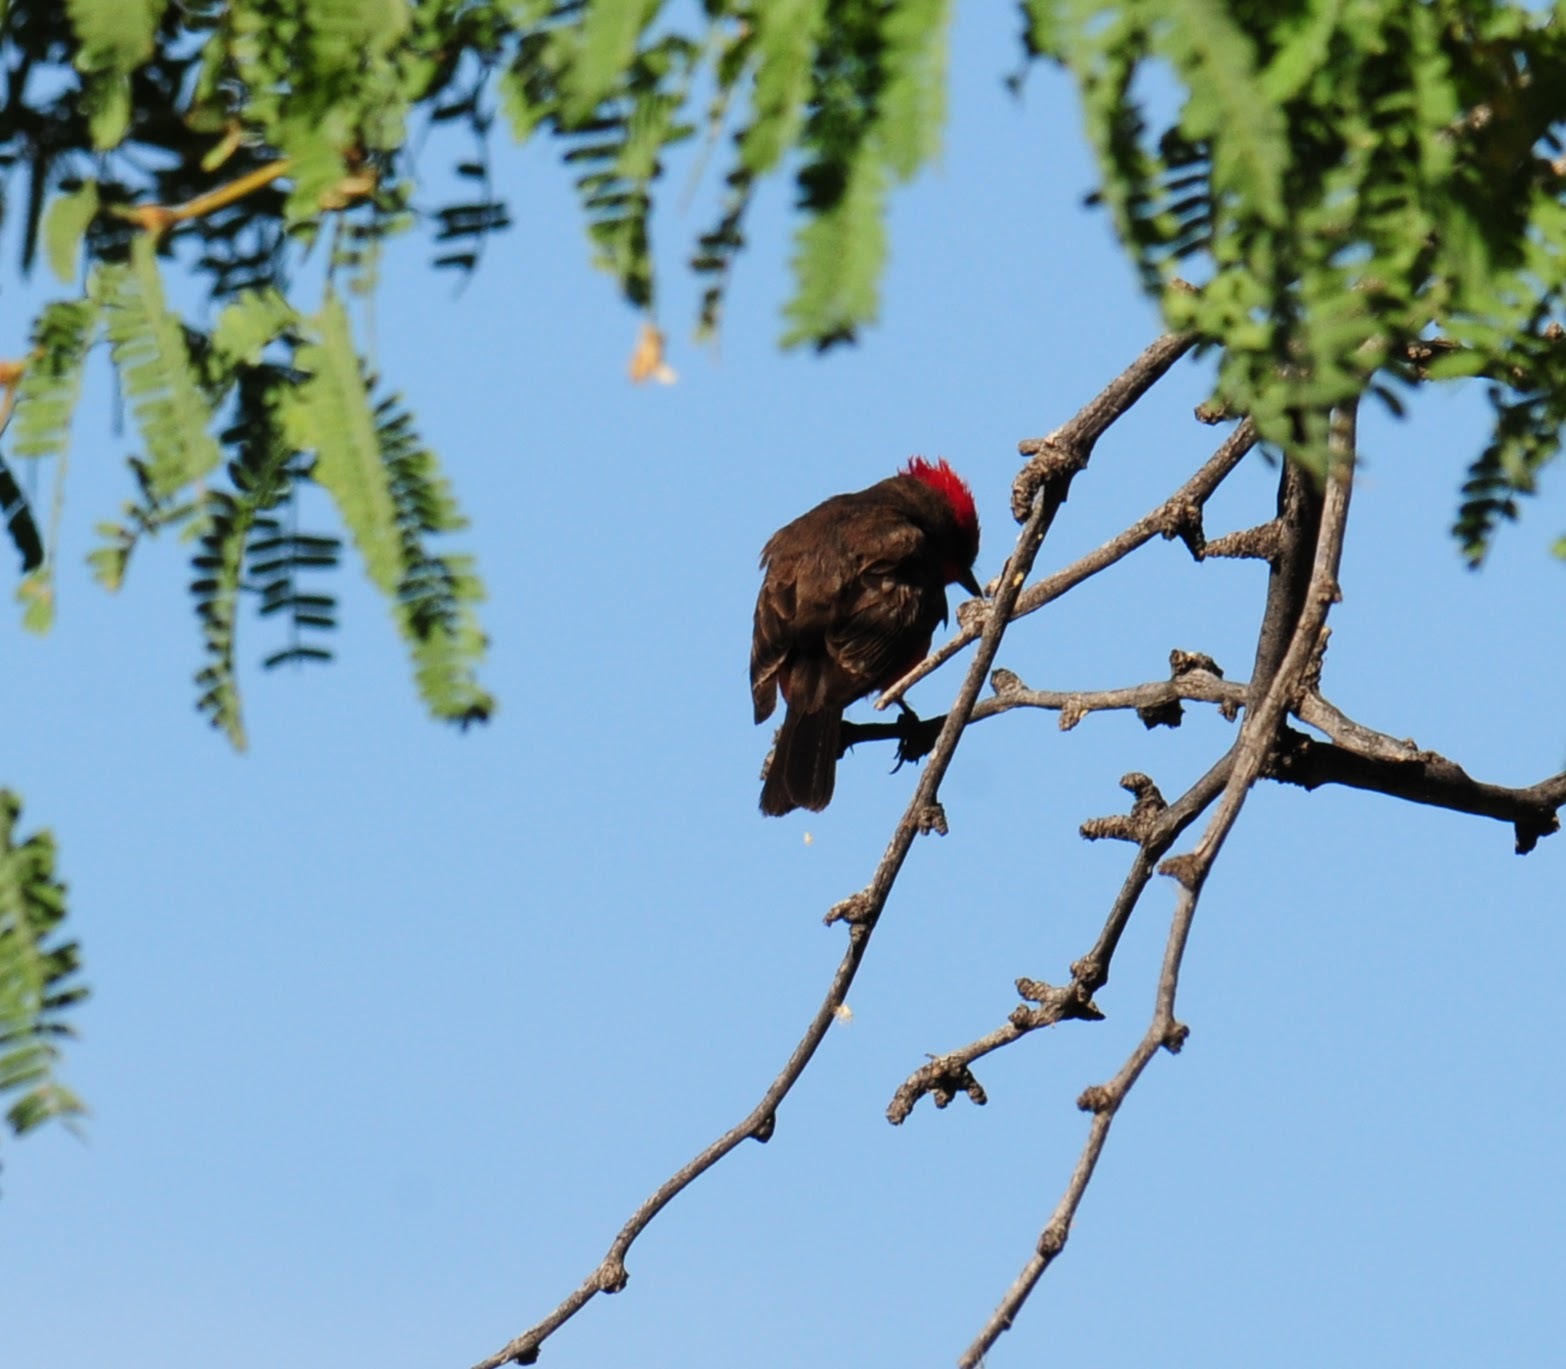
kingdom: Animalia
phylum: Chordata
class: Aves
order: Passeriformes
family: Tyrannidae
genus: Pyrocephalus
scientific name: Pyrocephalus rubinus
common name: Vermilion flycatcher
